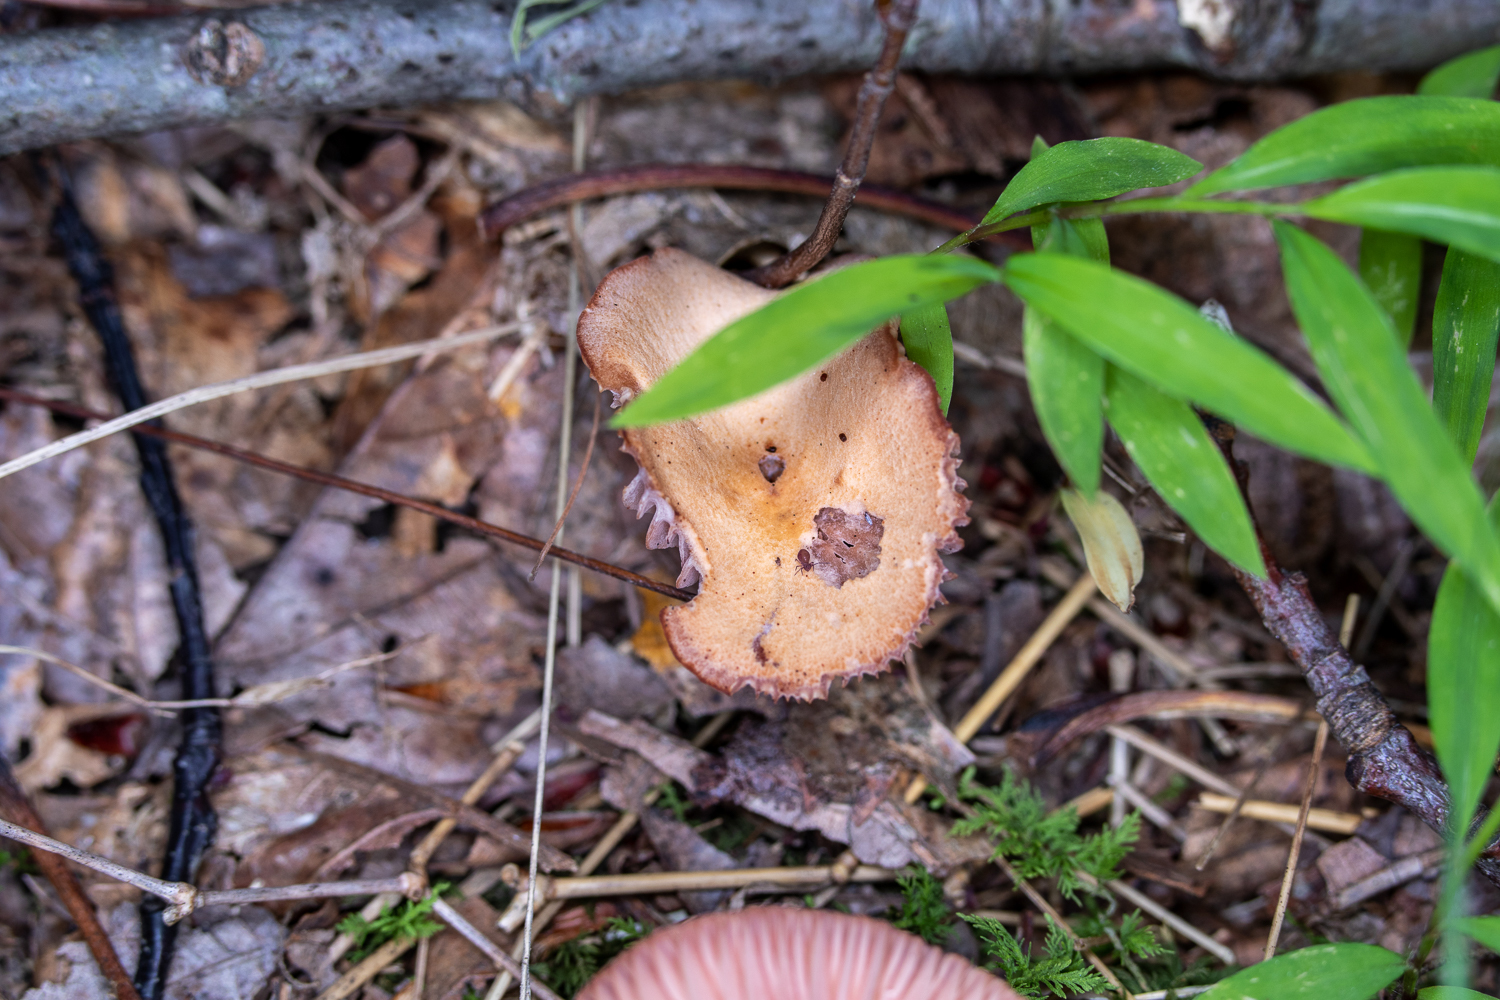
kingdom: Fungi
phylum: Basidiomycota
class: Agaricomycetes
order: Agaricales
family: Hydnangiaceae
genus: Laccaria
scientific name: Laccaria laccata
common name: Deceiver
